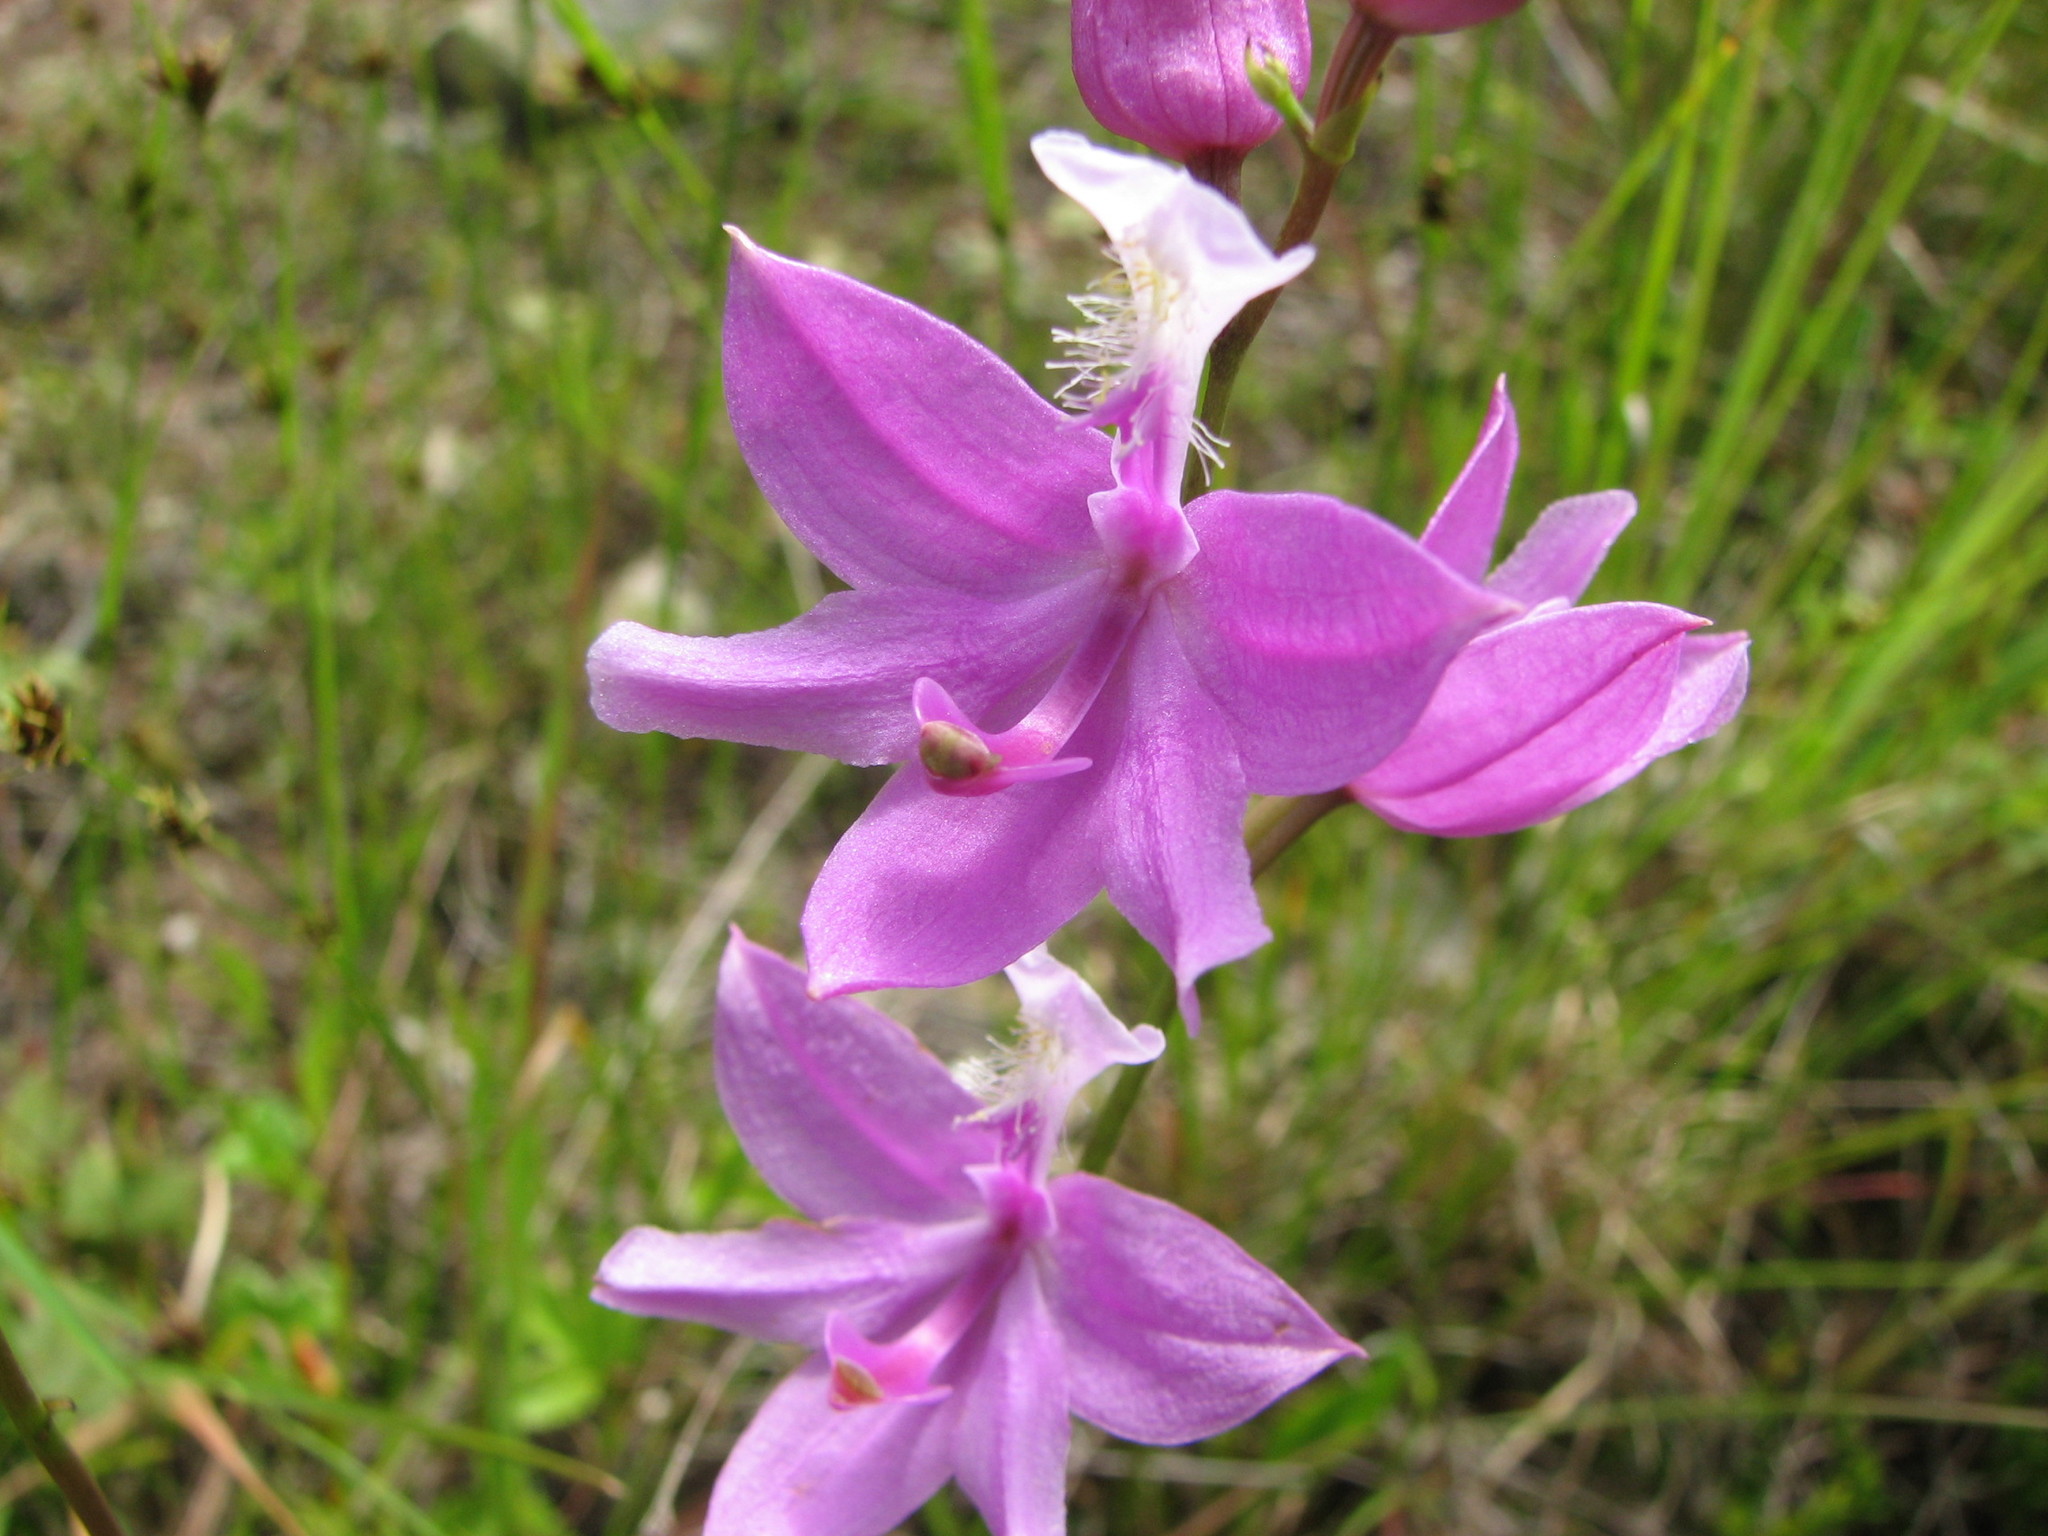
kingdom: Plantae
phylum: Tracheophyta
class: Liliopsida
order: Asparagales
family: Orchidaceae
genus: Calopogon
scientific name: Calopogon tuberosus
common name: Grass-pink
